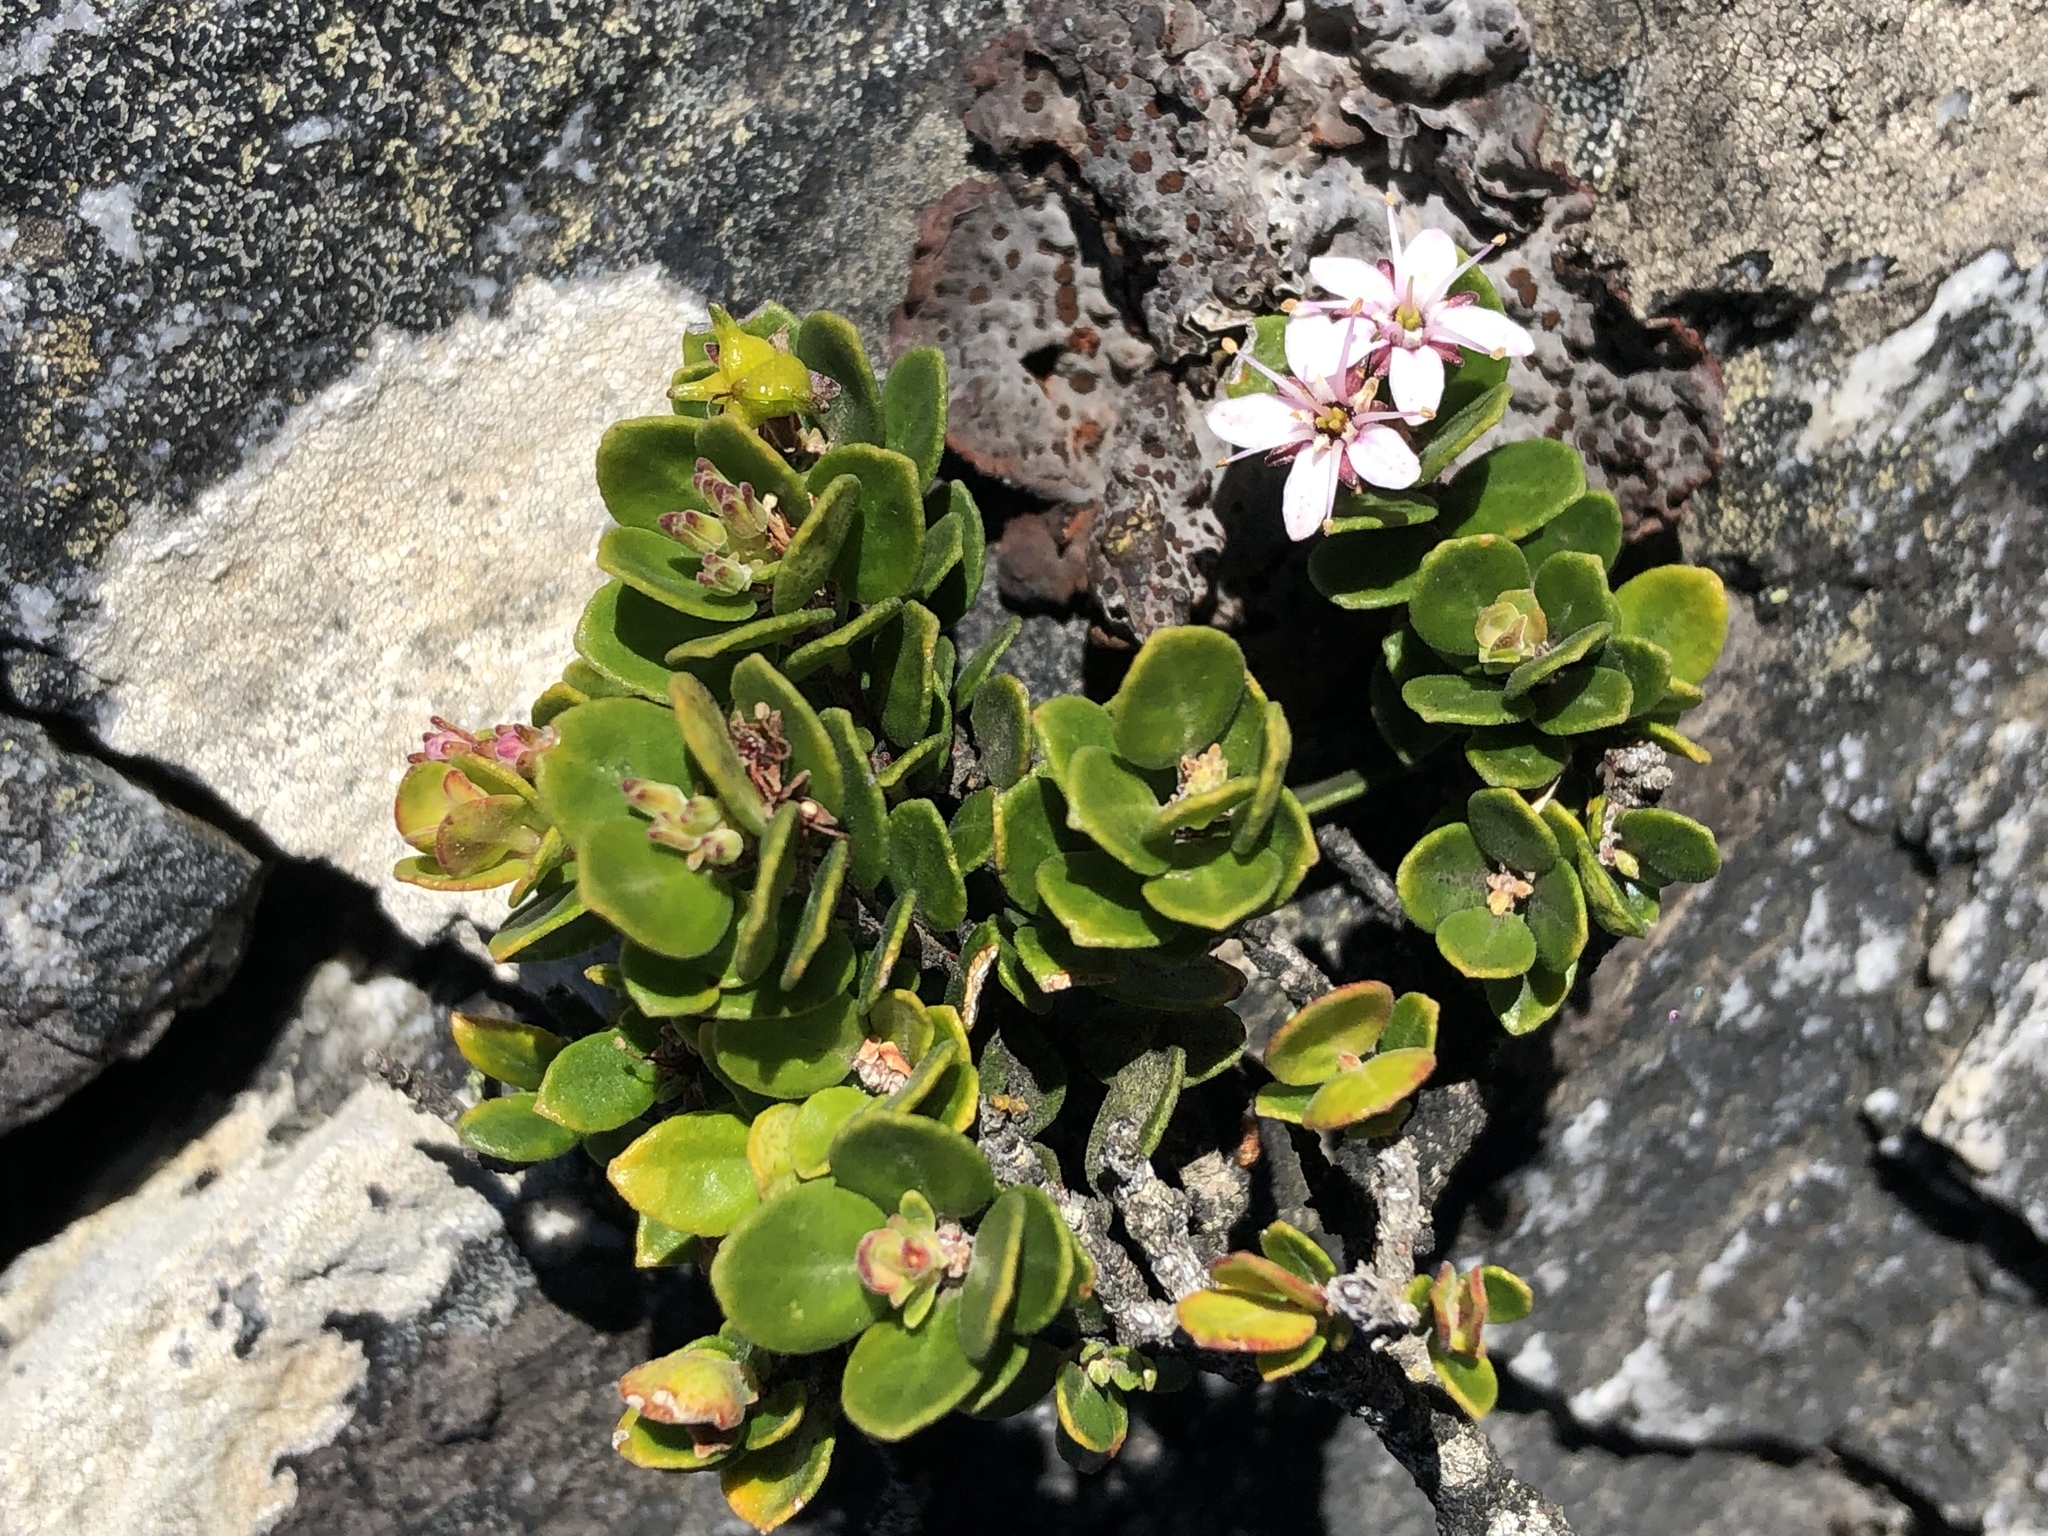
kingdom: Plantae
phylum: Tracheophyta
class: Magnoliopsida
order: Sapindales
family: Rutaceae
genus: Agathosma
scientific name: Agathosma ovata
